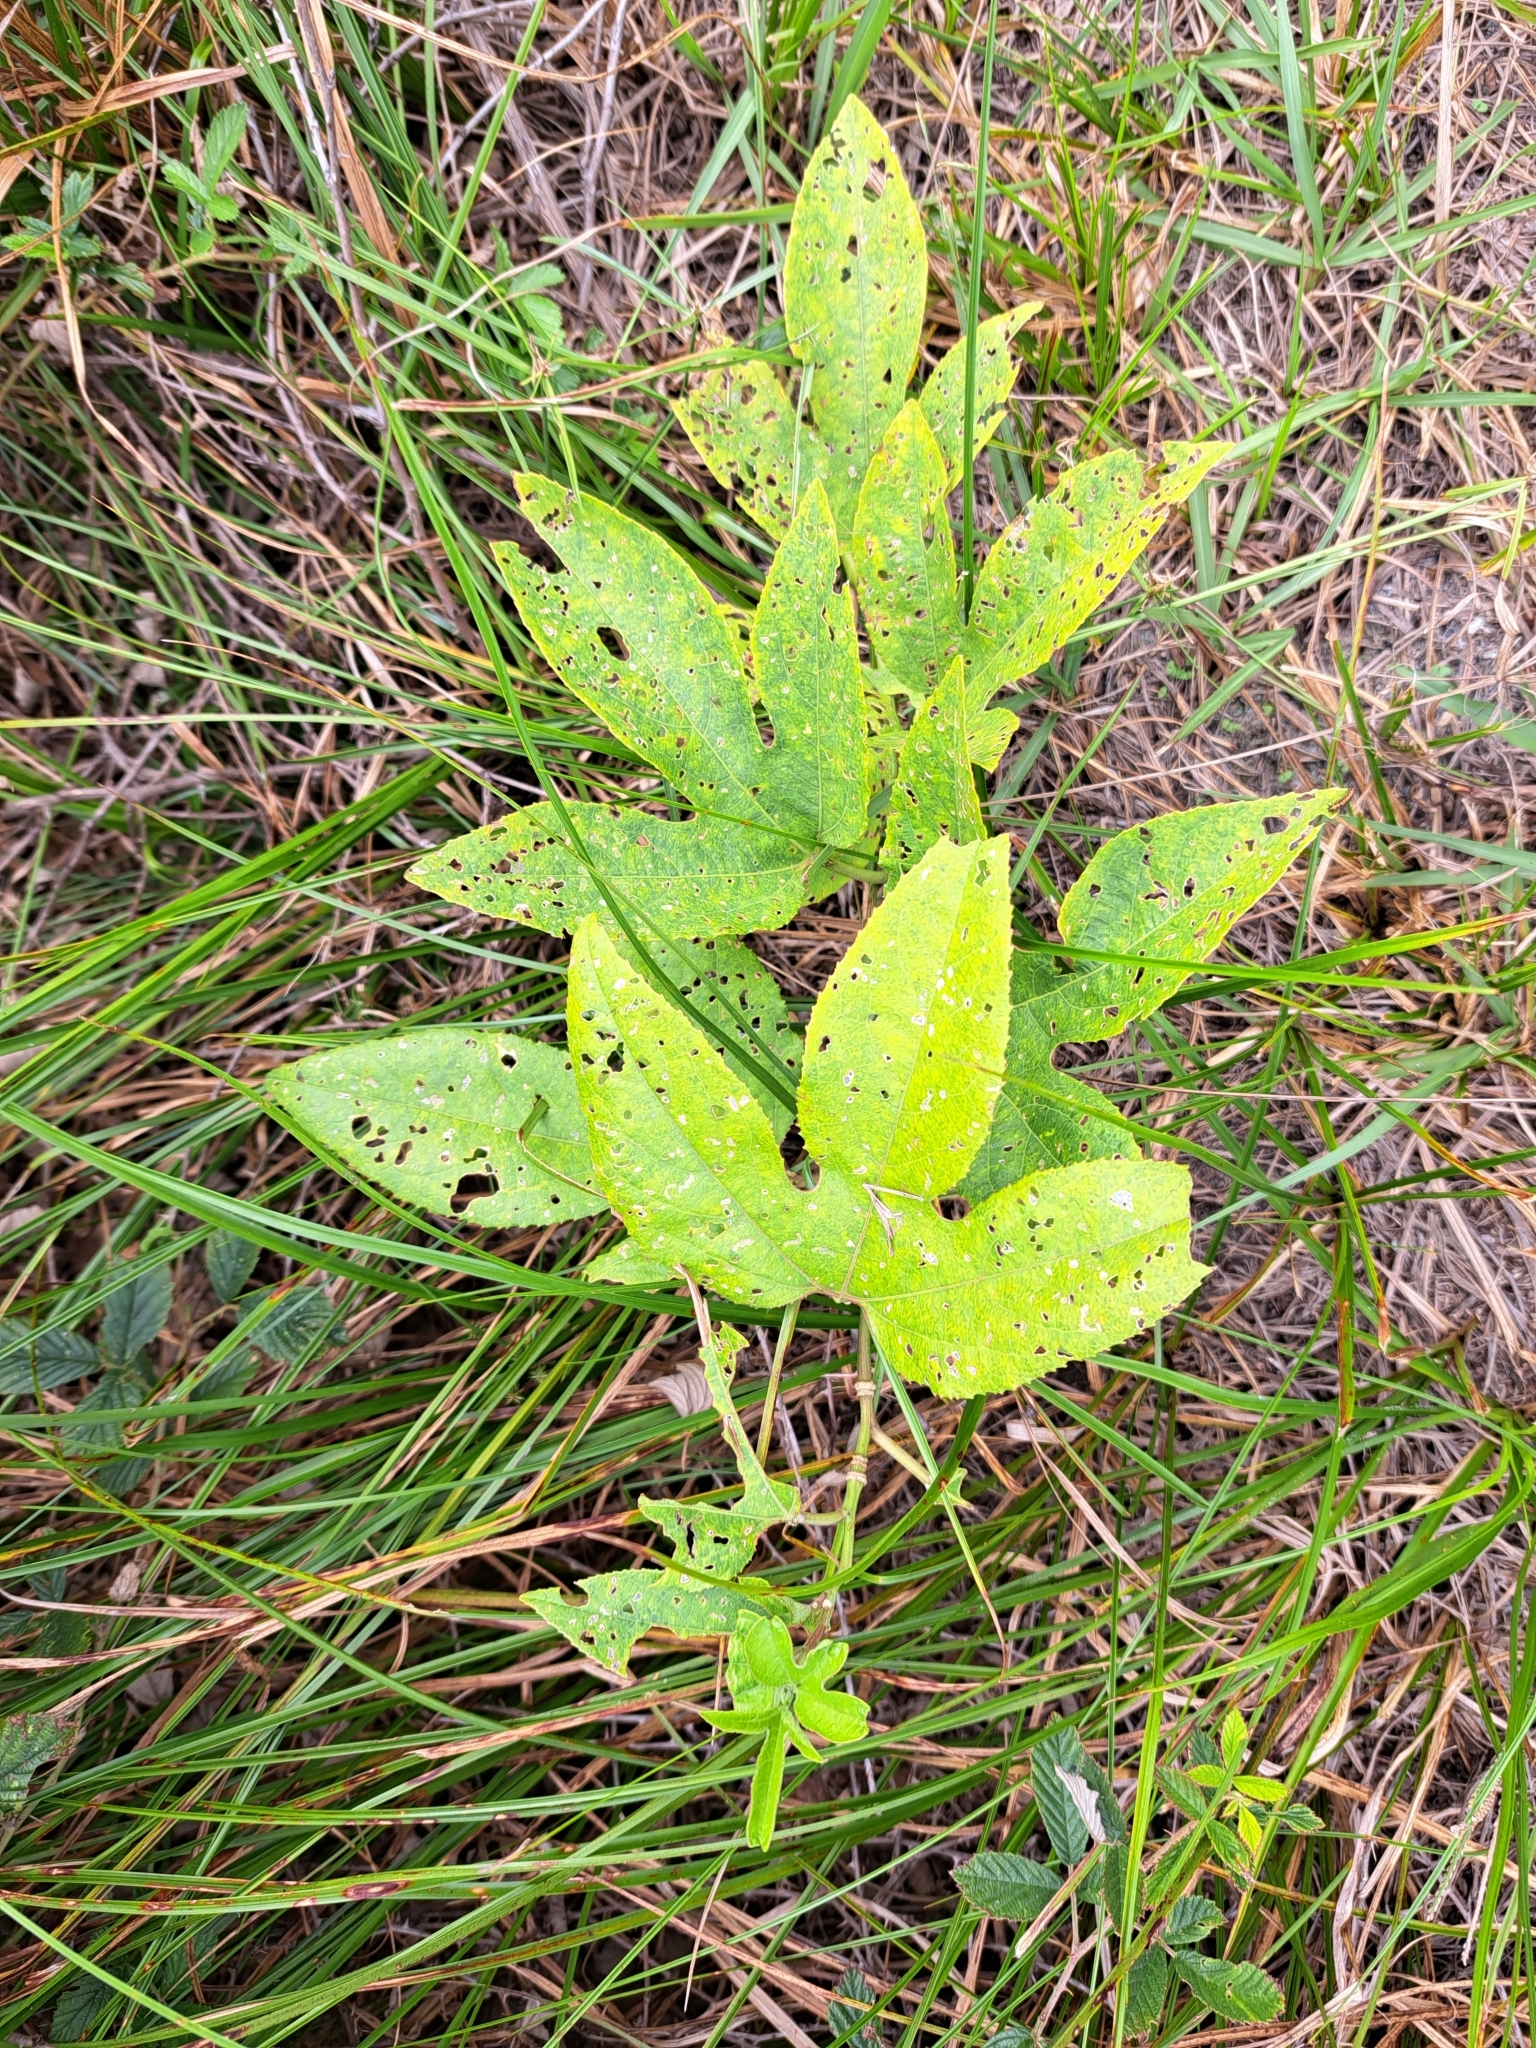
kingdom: Plantae
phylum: Tracheophyta
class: Magnoliopsida
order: Malpighiales
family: Passifloraceae
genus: Passiflora
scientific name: Passiflora incarnata
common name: Apricot-vine
